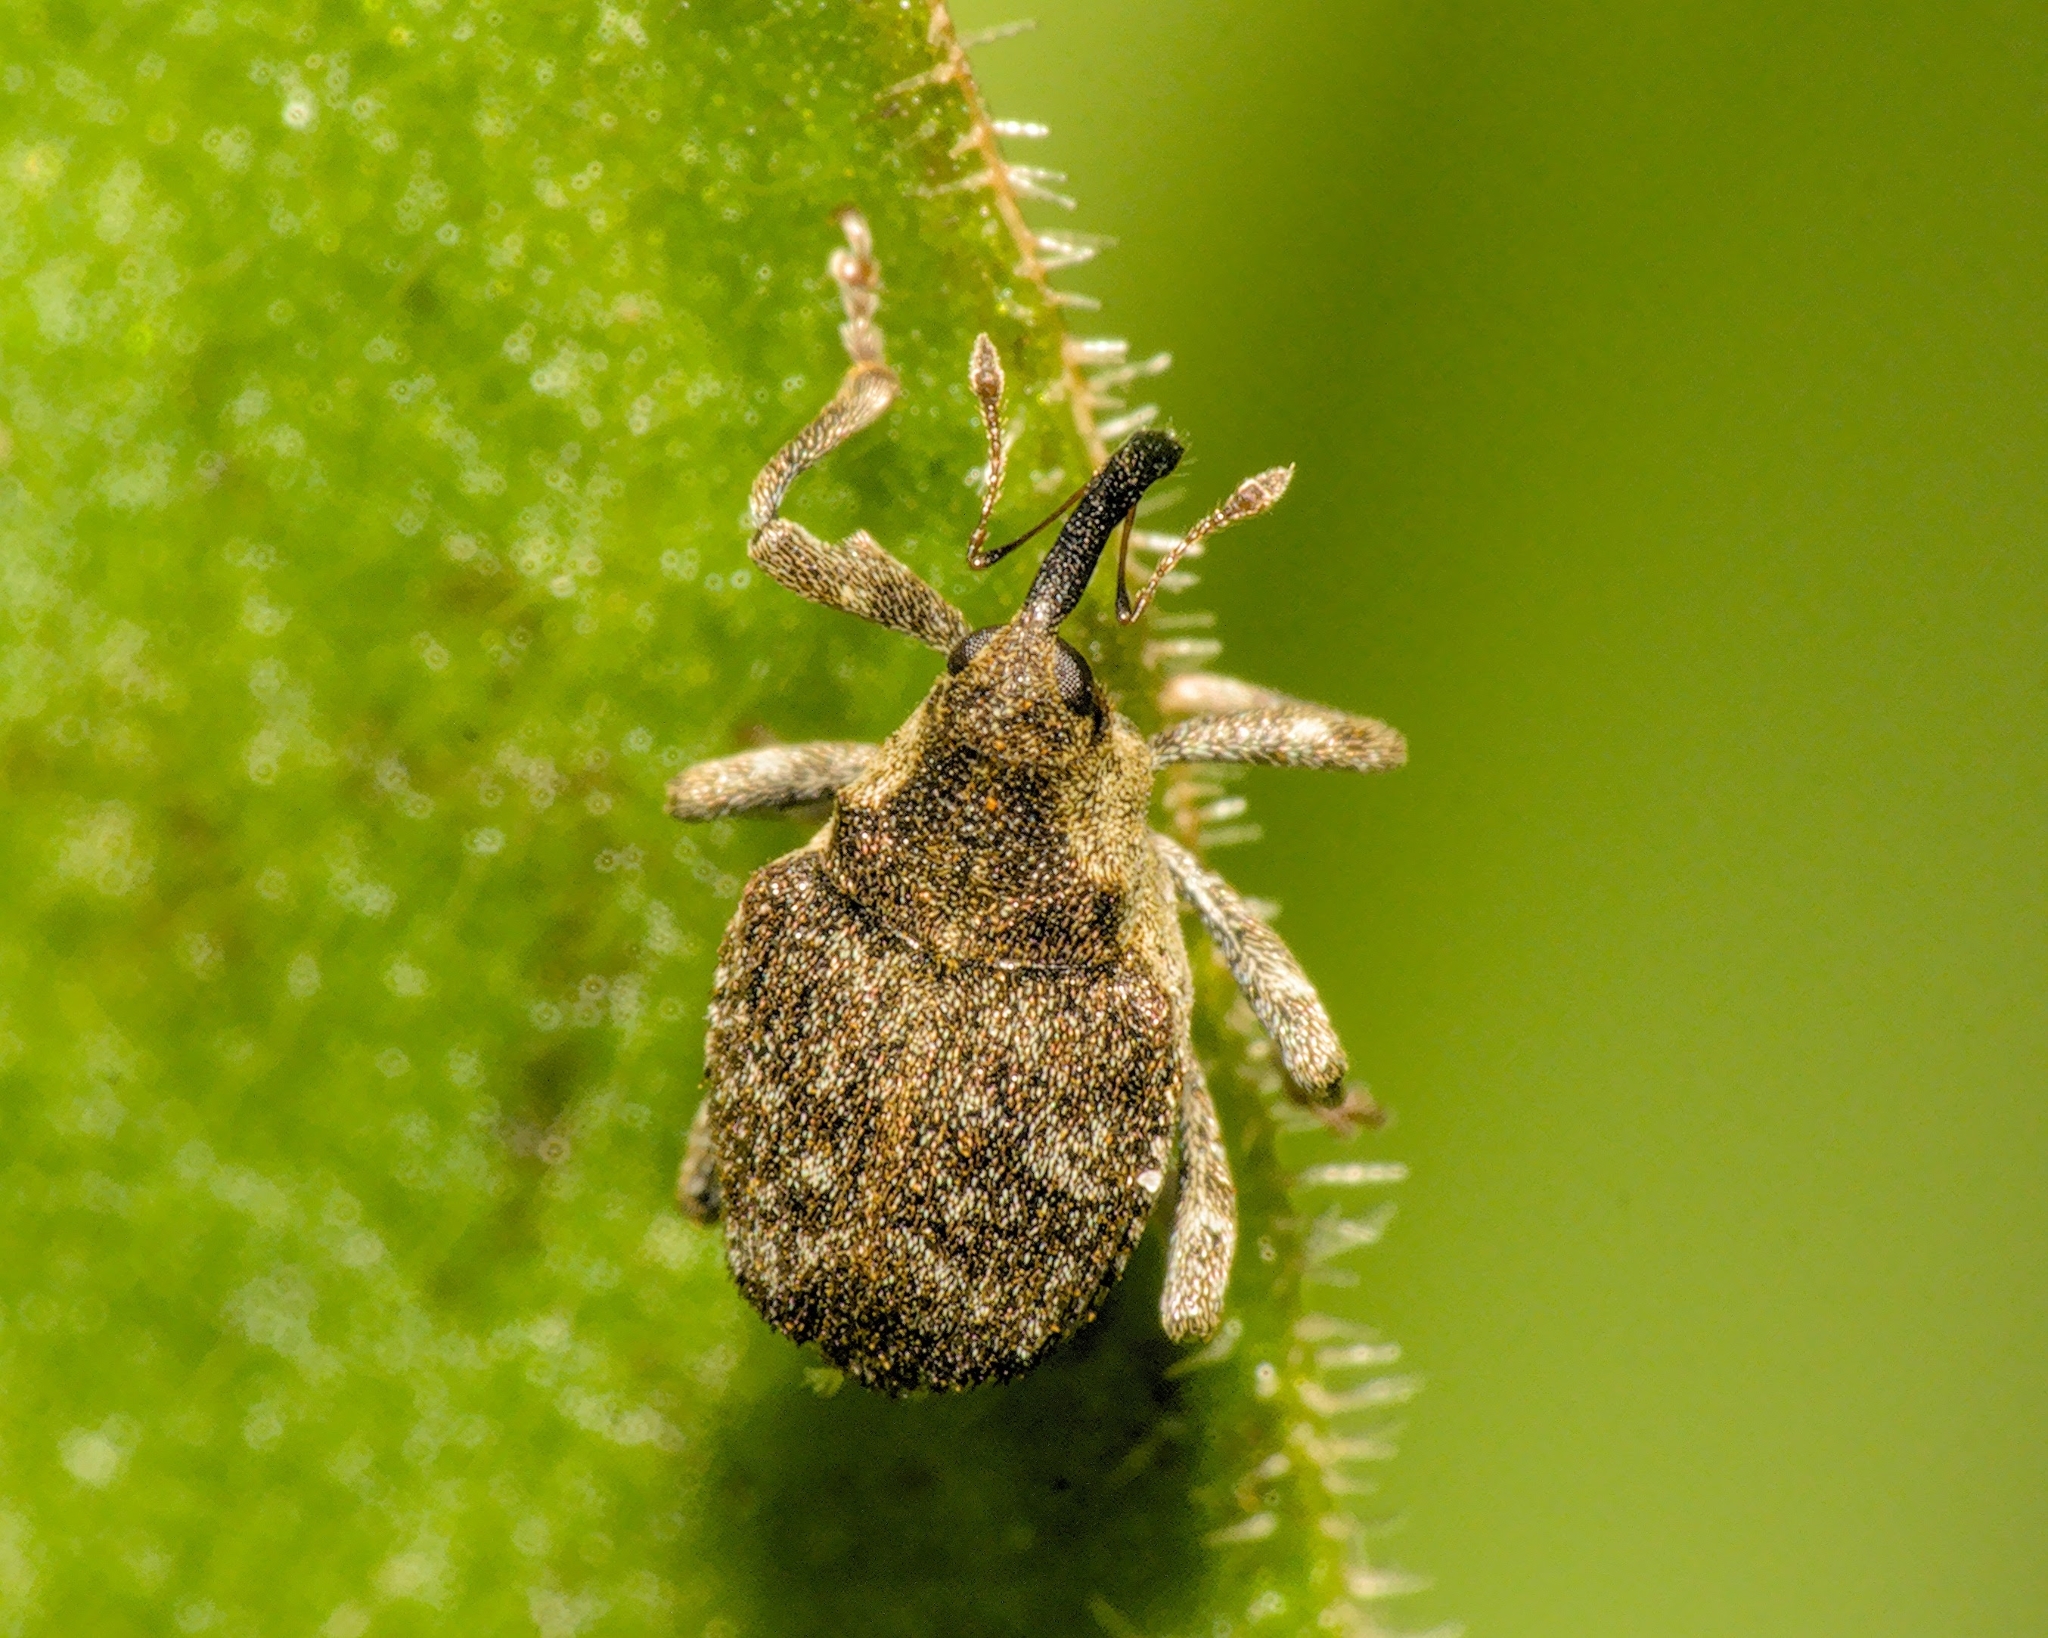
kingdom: Animalia
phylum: Arthropoda
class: Insecta
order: Coleoptera
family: Curculionidae
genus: Parethelcus
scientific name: Parethelcus pollinarius
